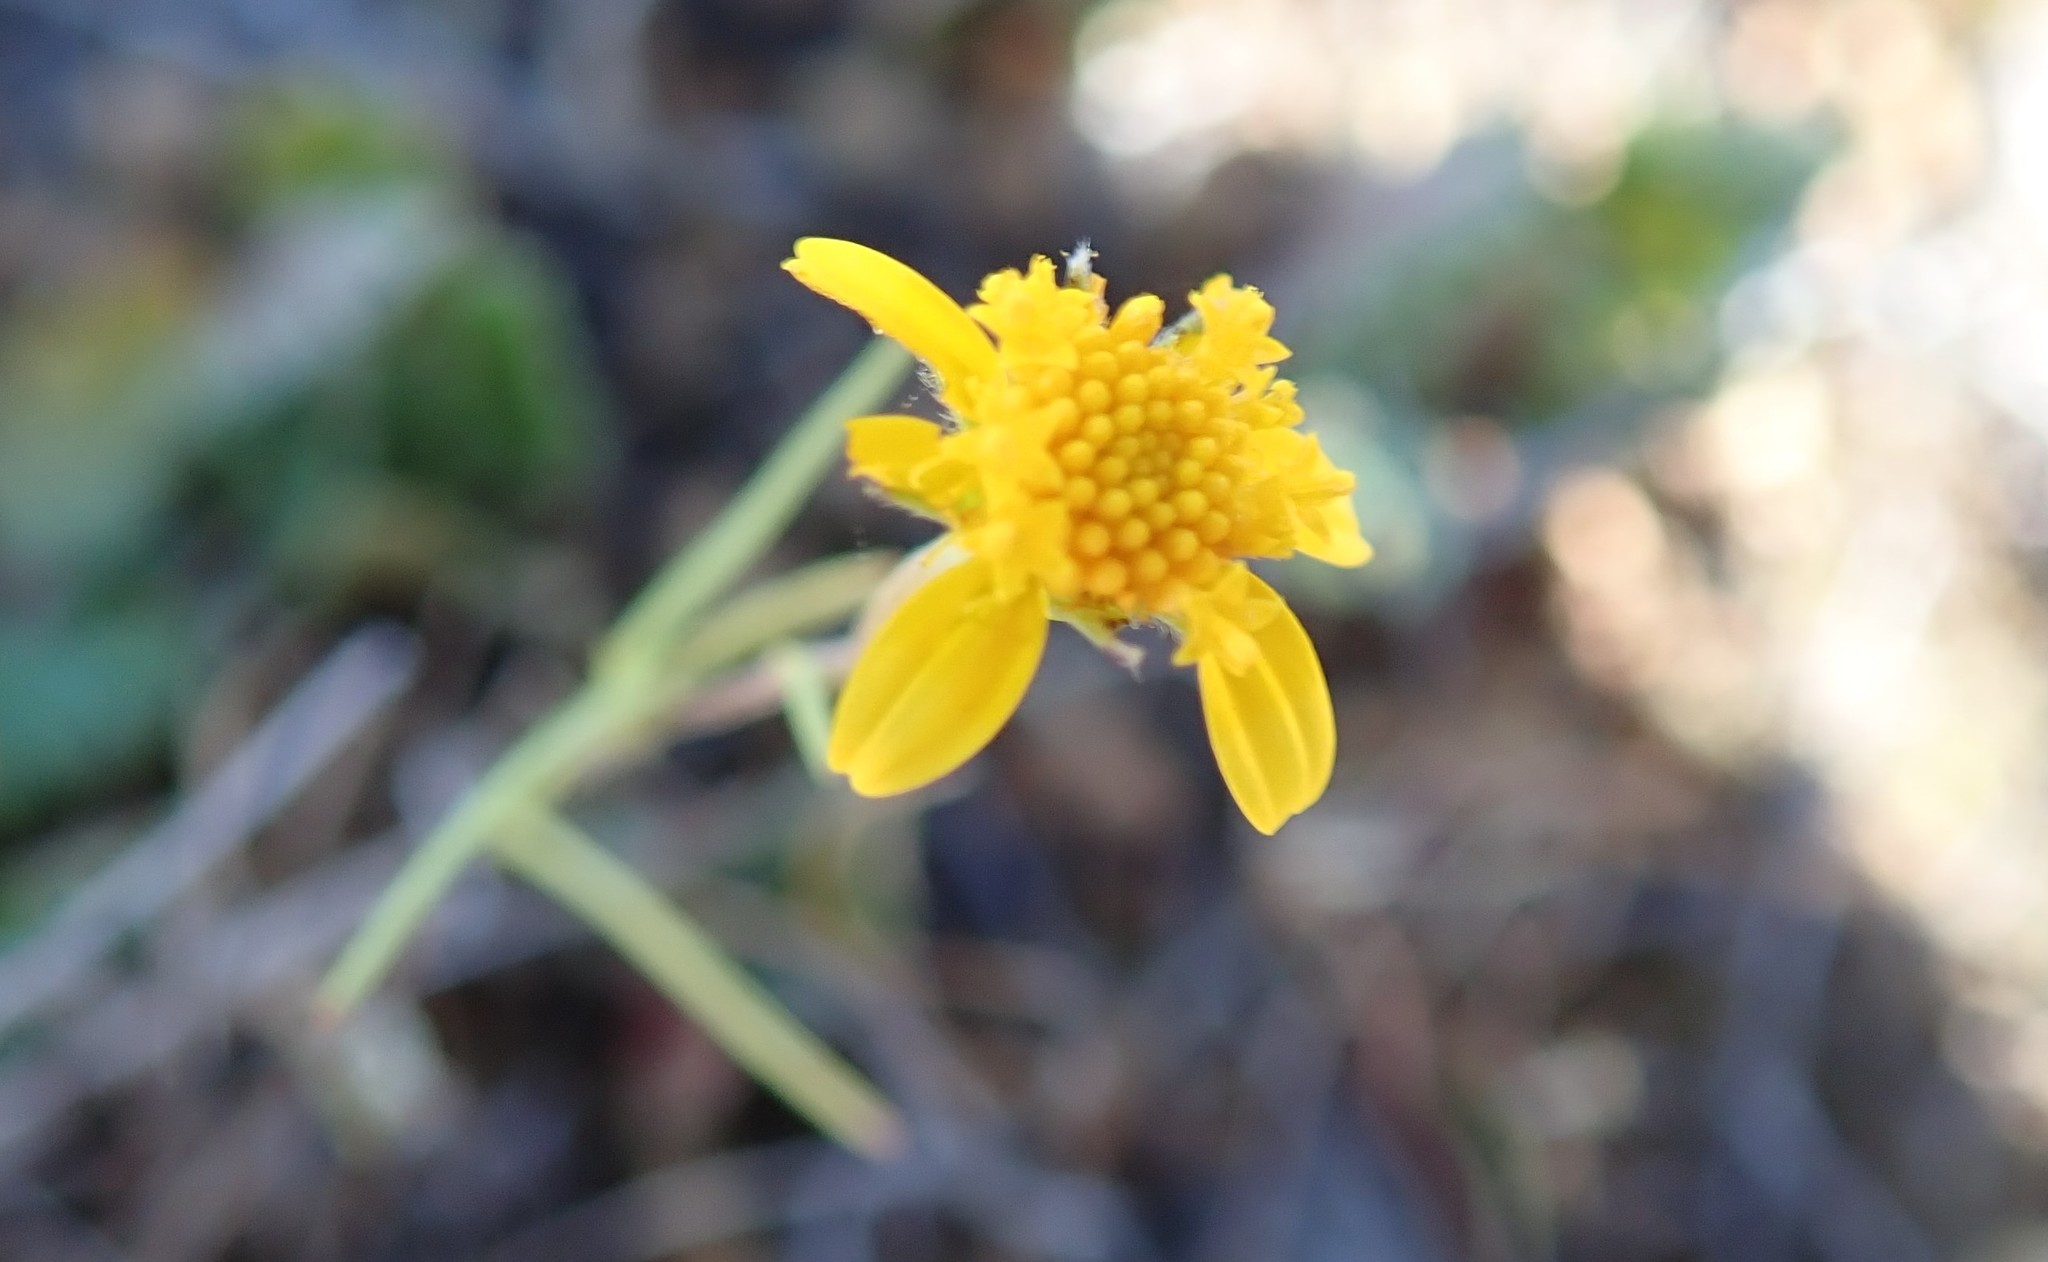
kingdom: Plantae
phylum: Tracheophyta
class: Magnoliopsida
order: Asterales
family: Asteraceae
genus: Lasthenia
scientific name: Lasthenia gracilis
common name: Common goldfields
